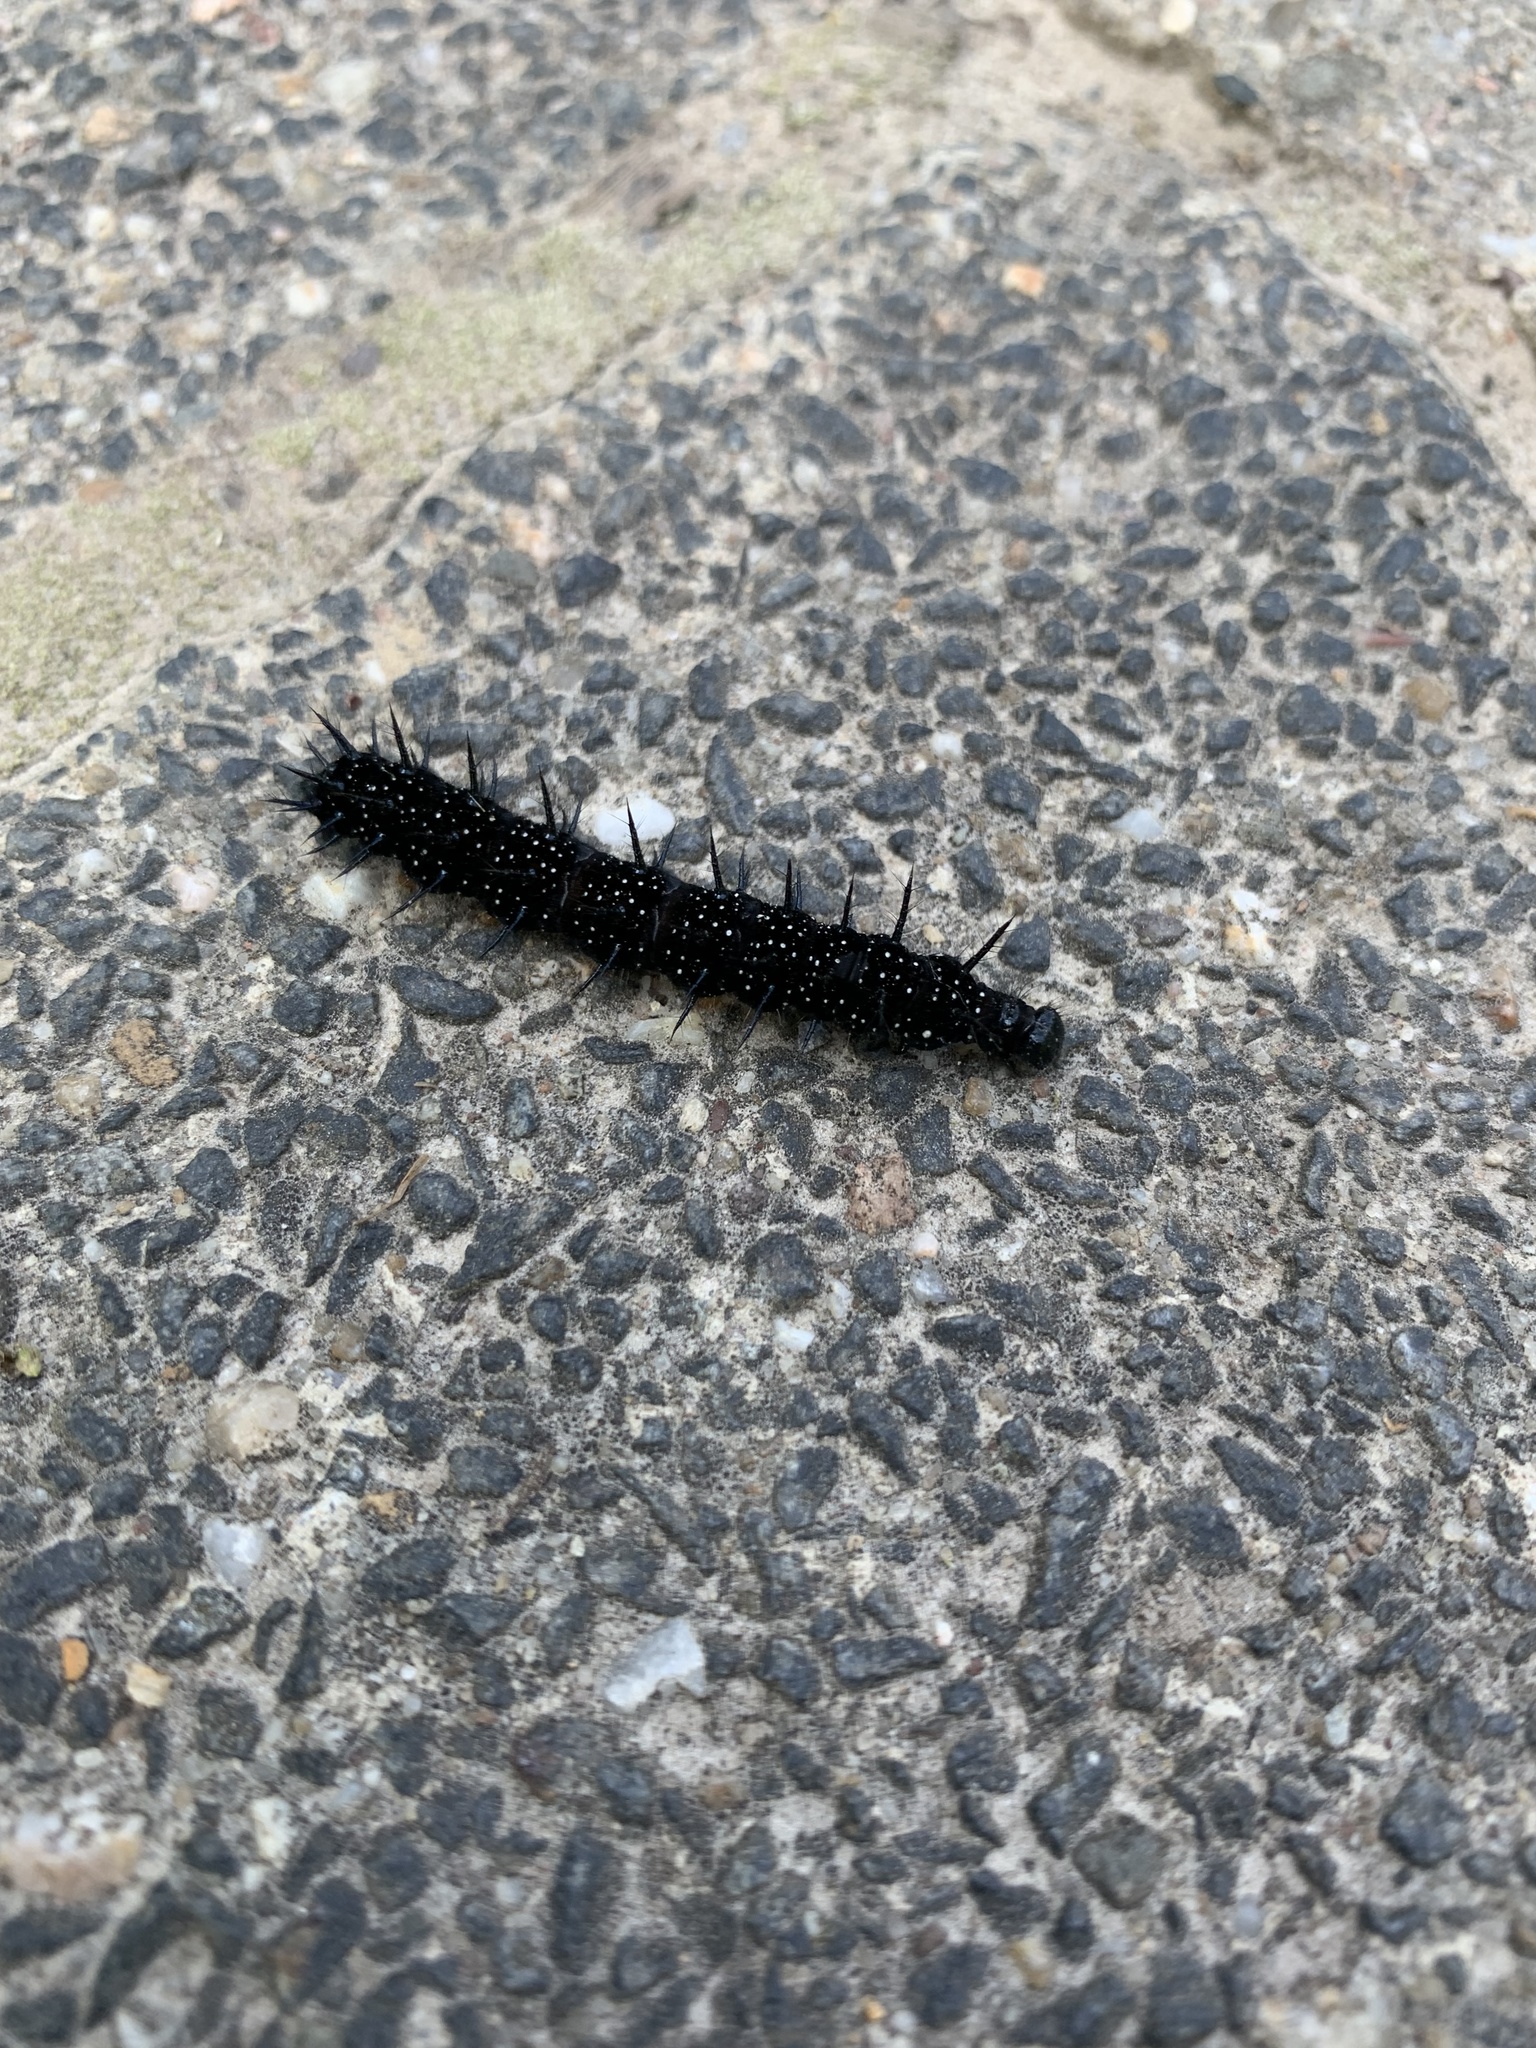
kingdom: Animalia
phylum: Arthropoda
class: Insecta
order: Lepidoptera
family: Nymphalidae
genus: Aglais
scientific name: Aglais io
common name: Peacock
